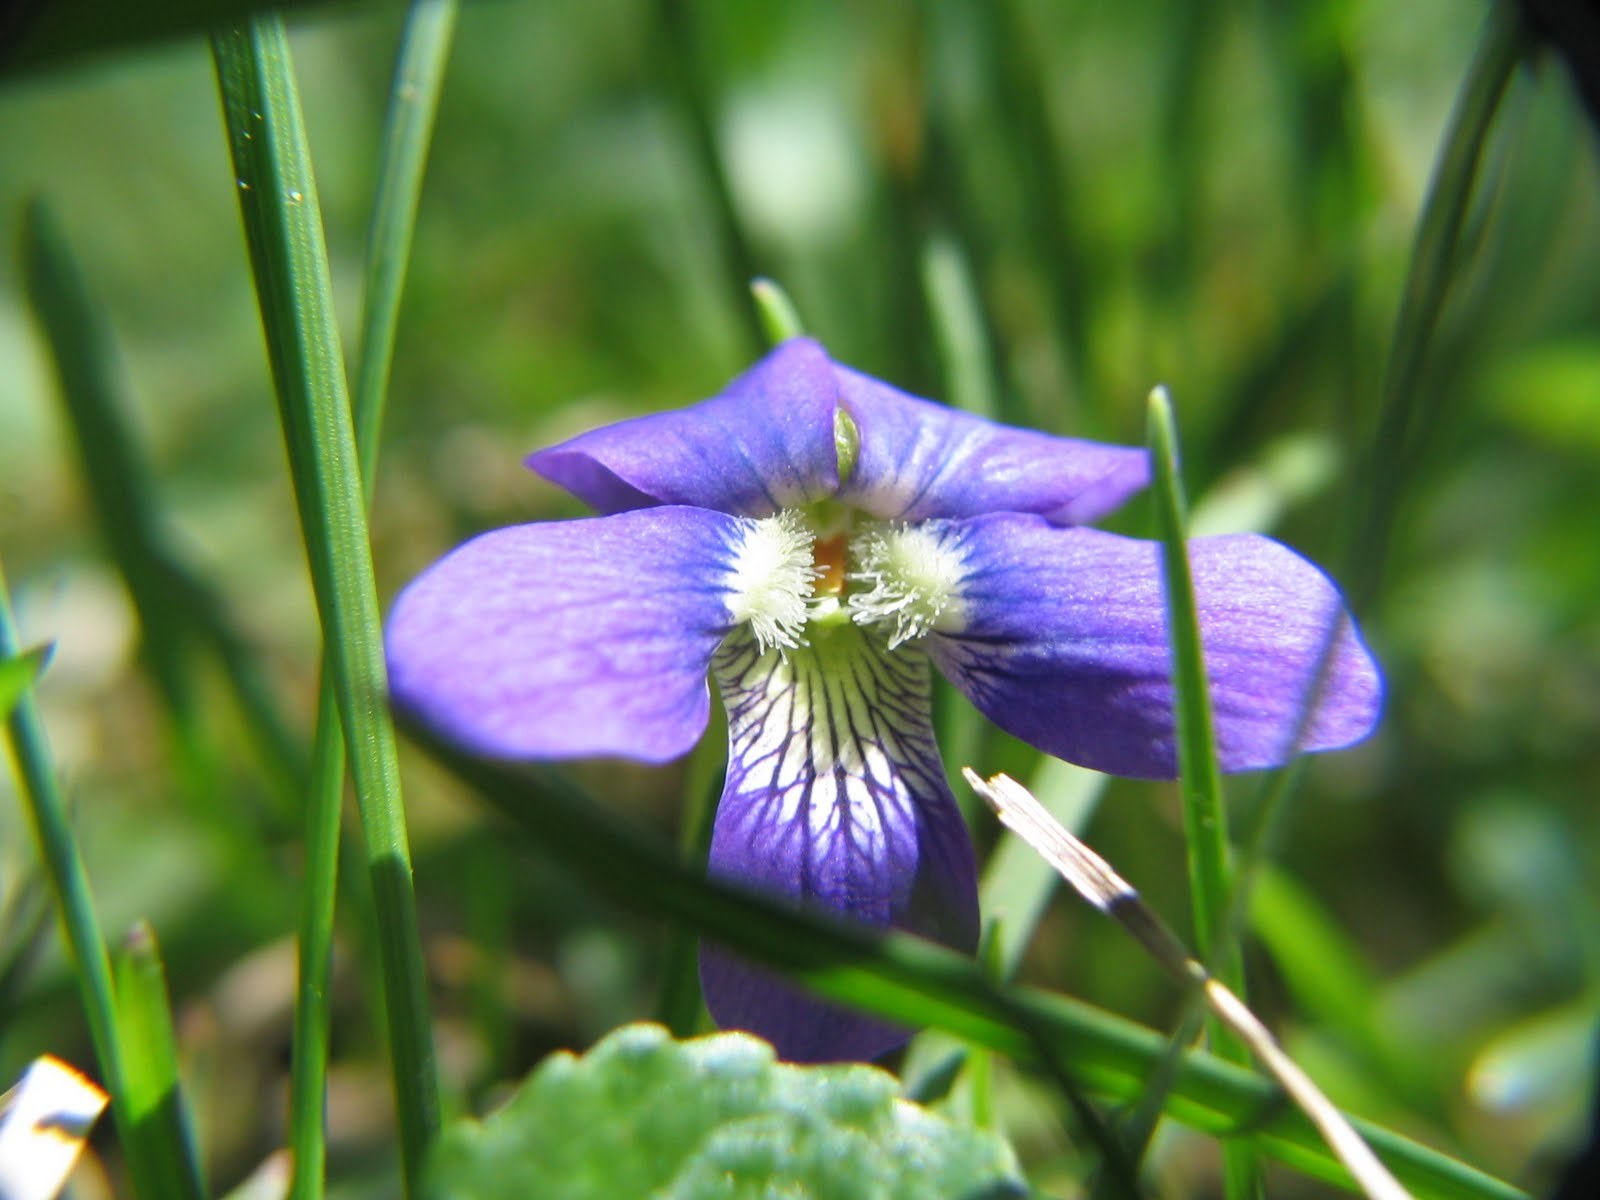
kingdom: Plantae
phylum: Tracheophyta
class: Magnoliopsida
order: Malpighiales
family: Violaceae
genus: Viola
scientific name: Viola sororia
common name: Dooryard violet
